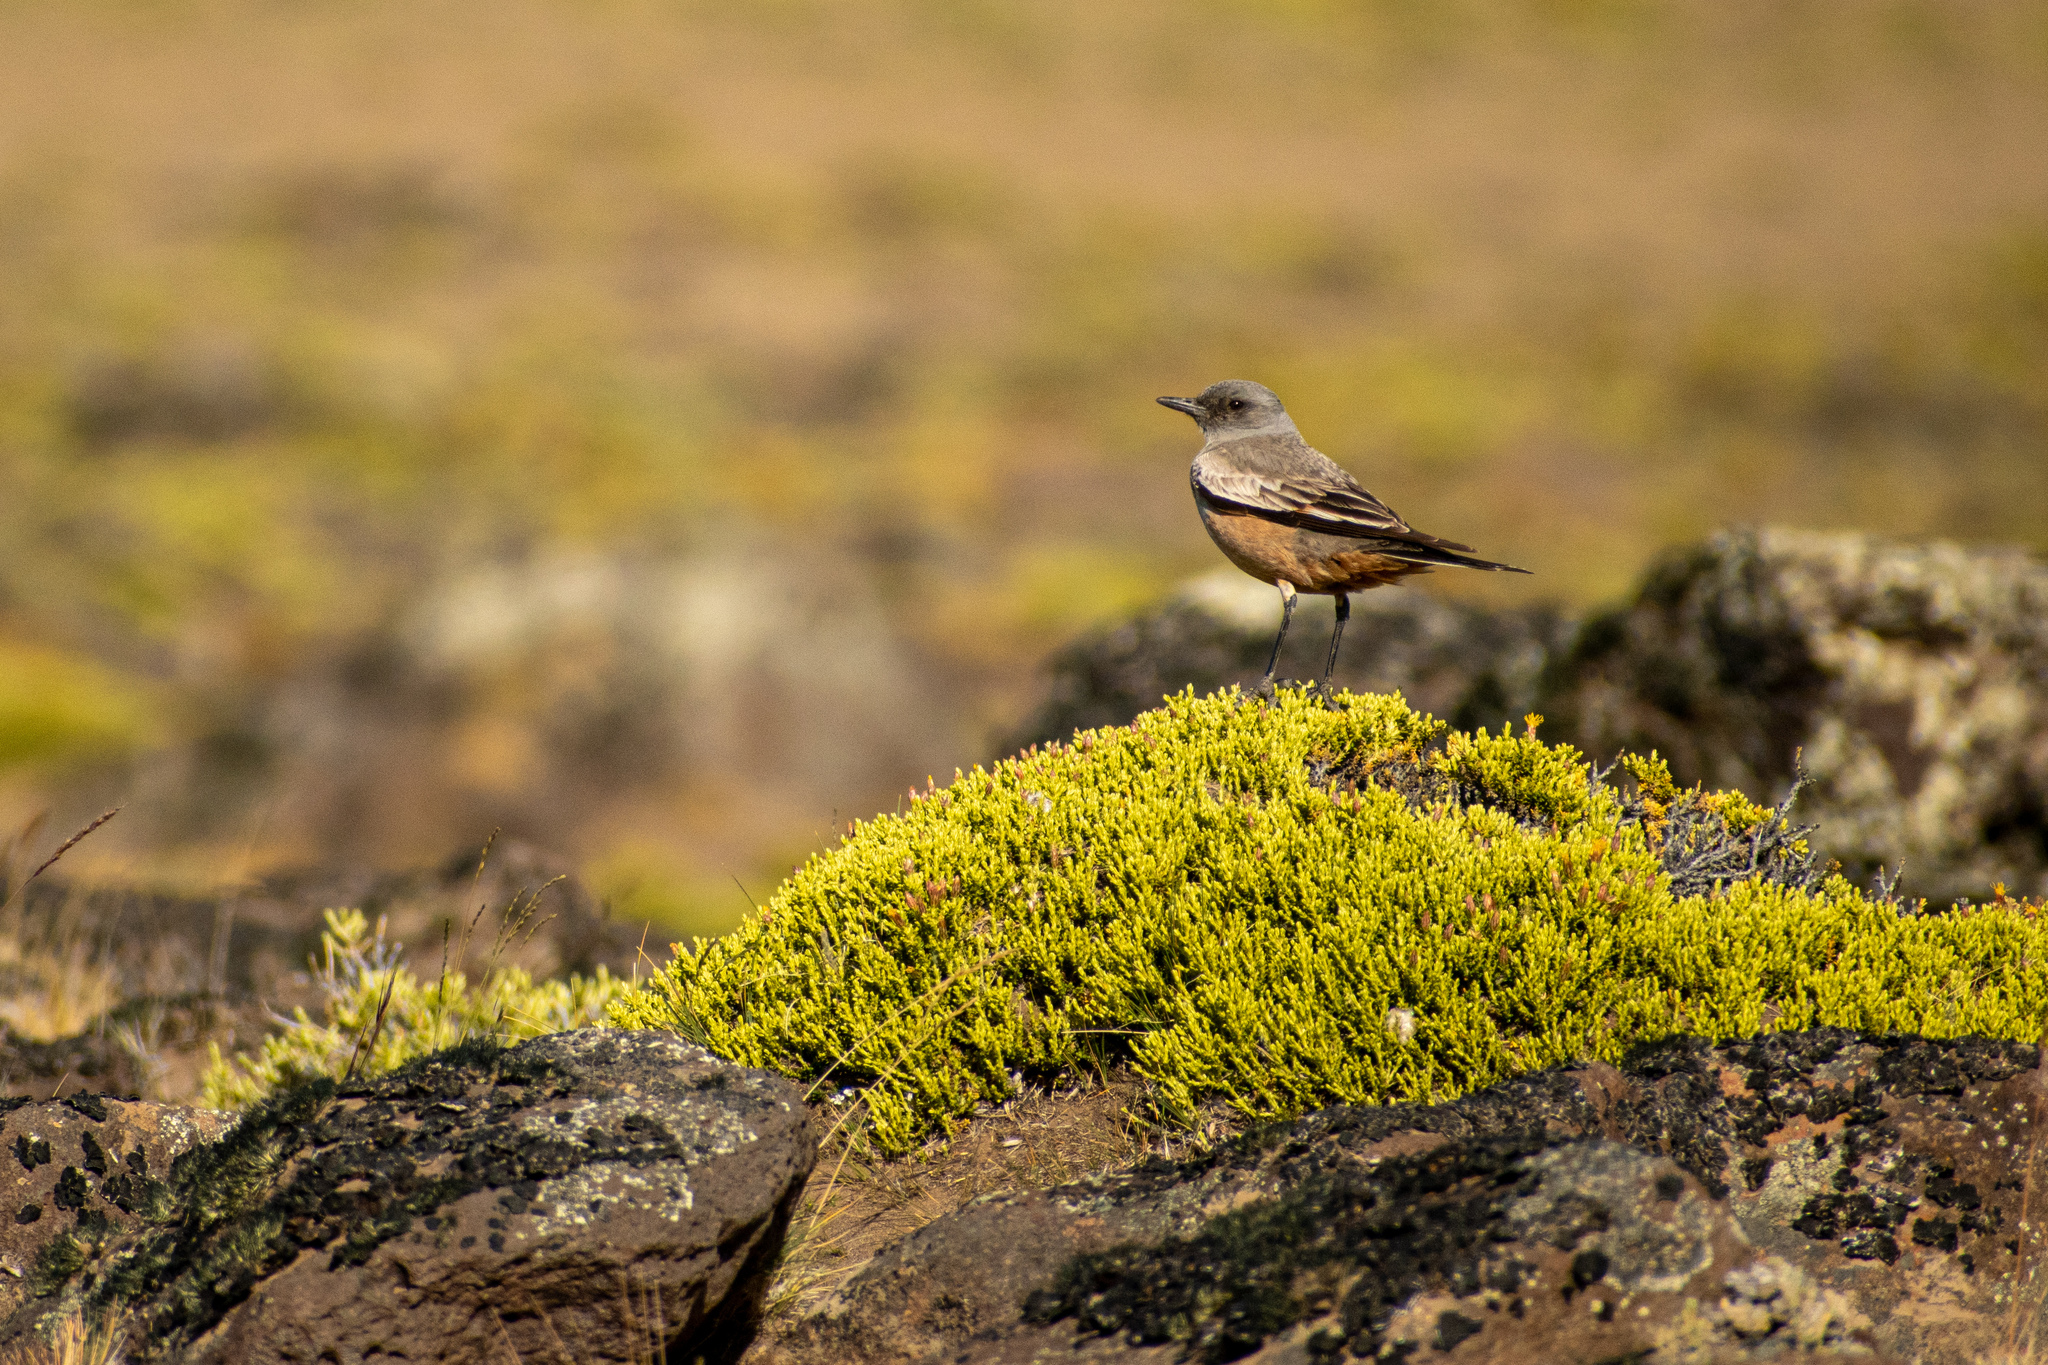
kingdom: Animalia
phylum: Chordata
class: Aves
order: Passeriformes
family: Tyrannidae
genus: Neoxolmis
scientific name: Neoxolmis rufiventris
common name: Chocolate-vented tyrant
